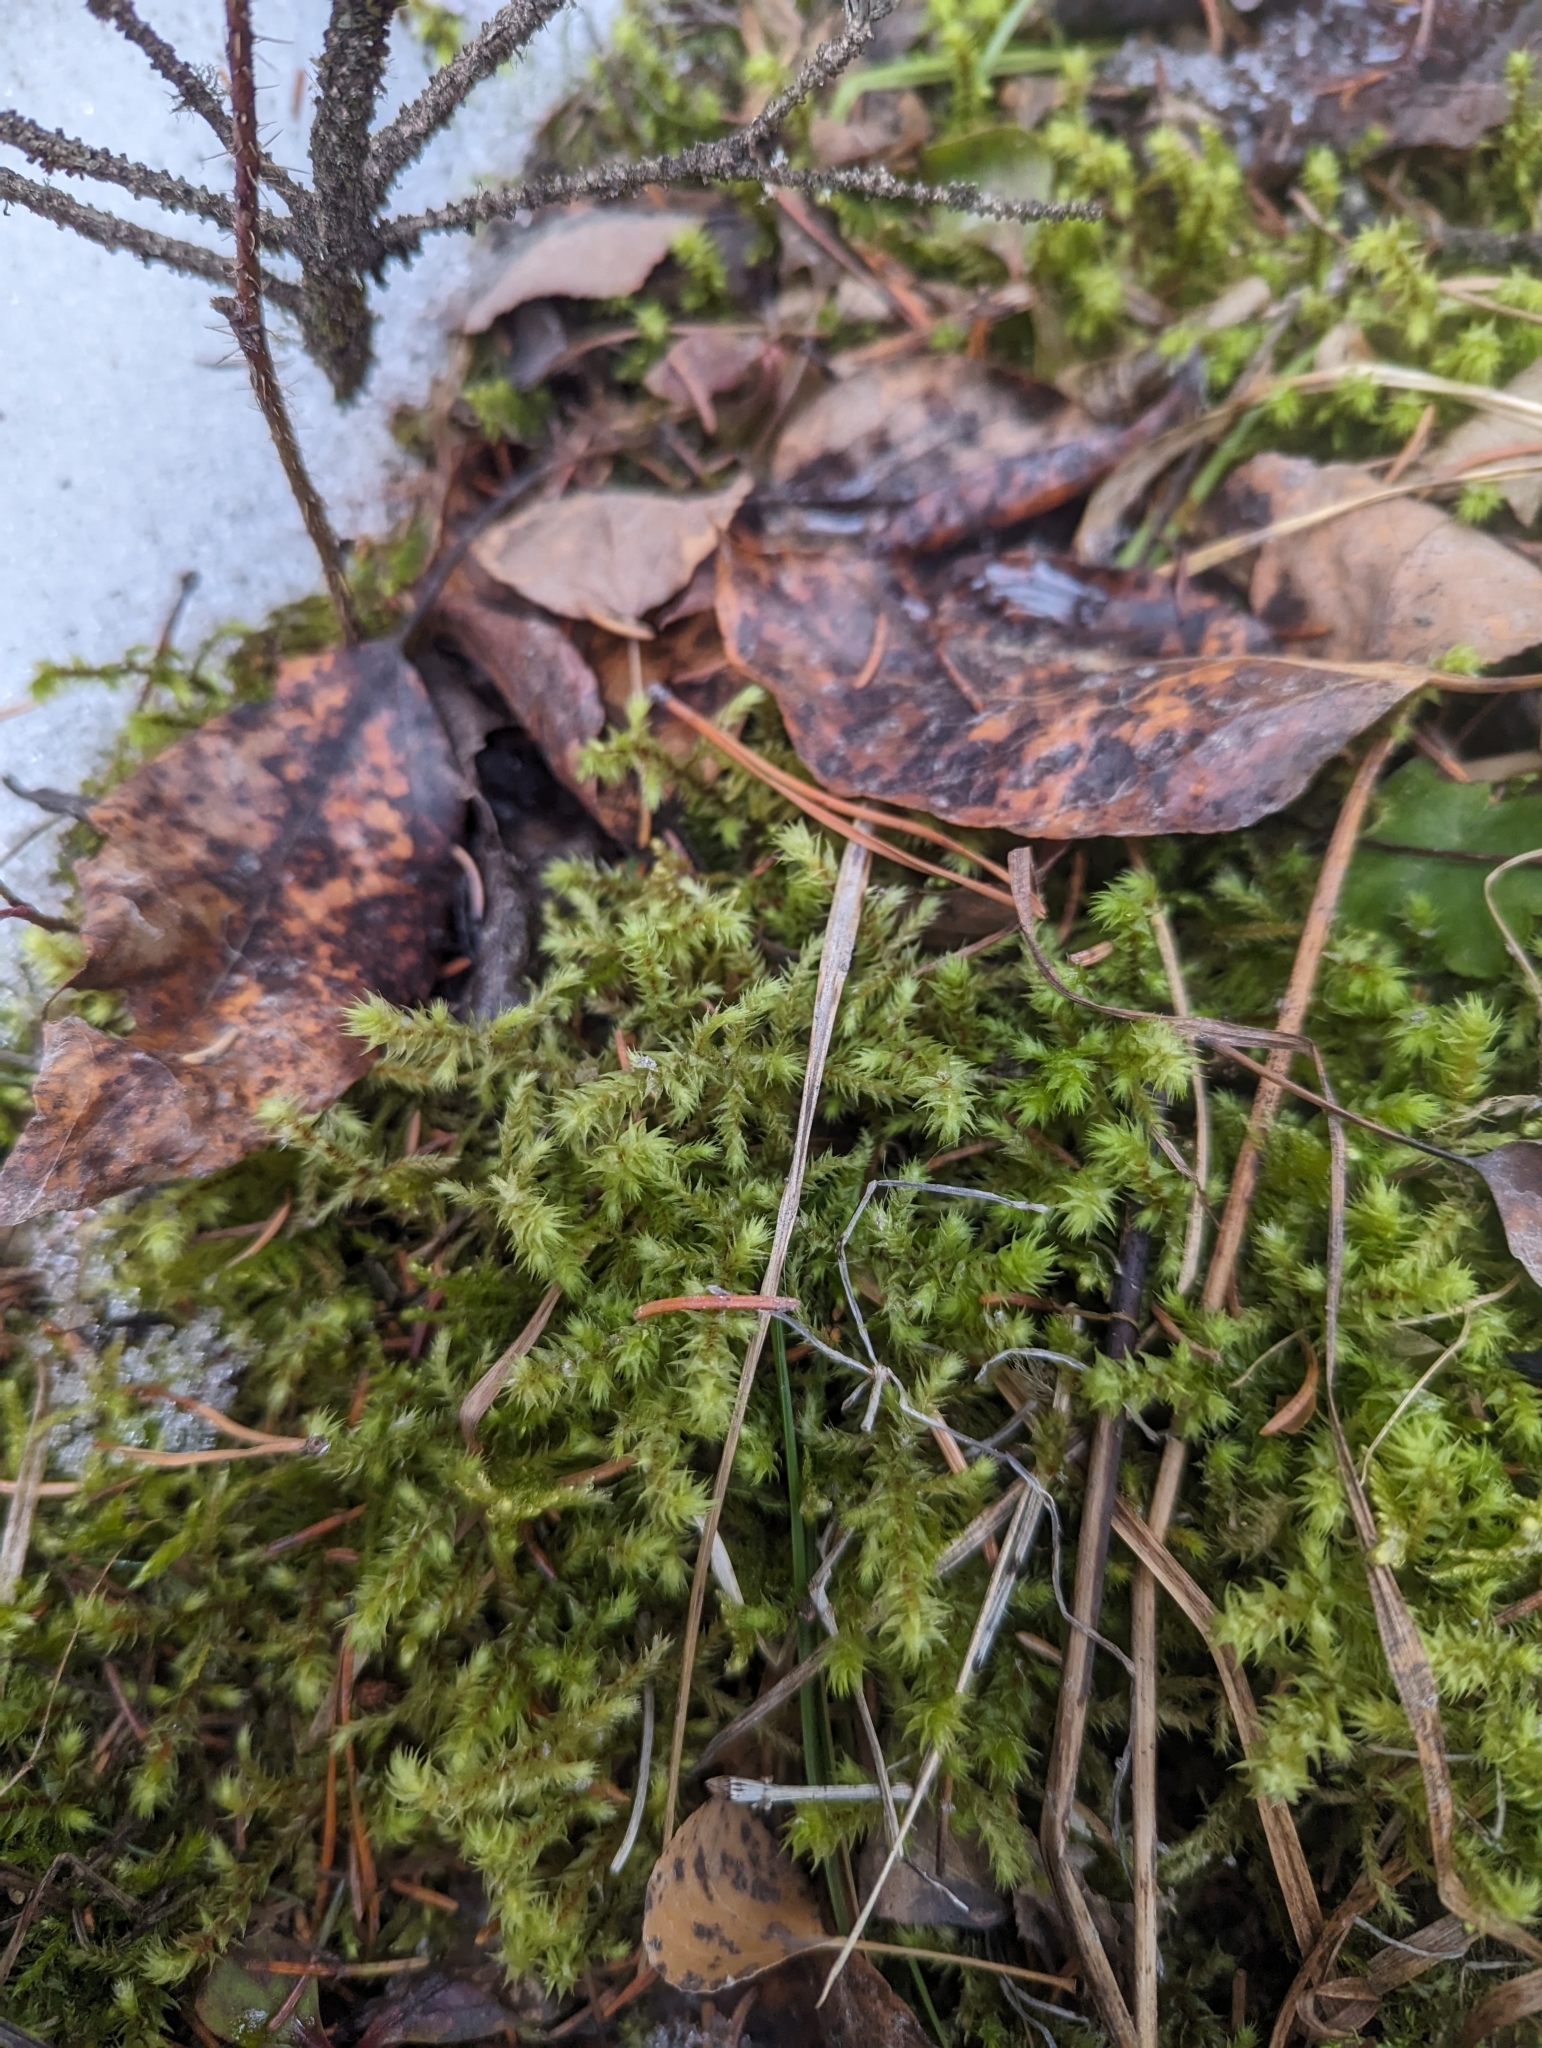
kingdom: Plantae
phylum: Bryophyta
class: Bryopsida
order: Hypnales
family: Hylocomiaceae
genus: Hylocomiadelphus
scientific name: Hylocomiadelphus triquetrus
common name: Rough goose neck moss
